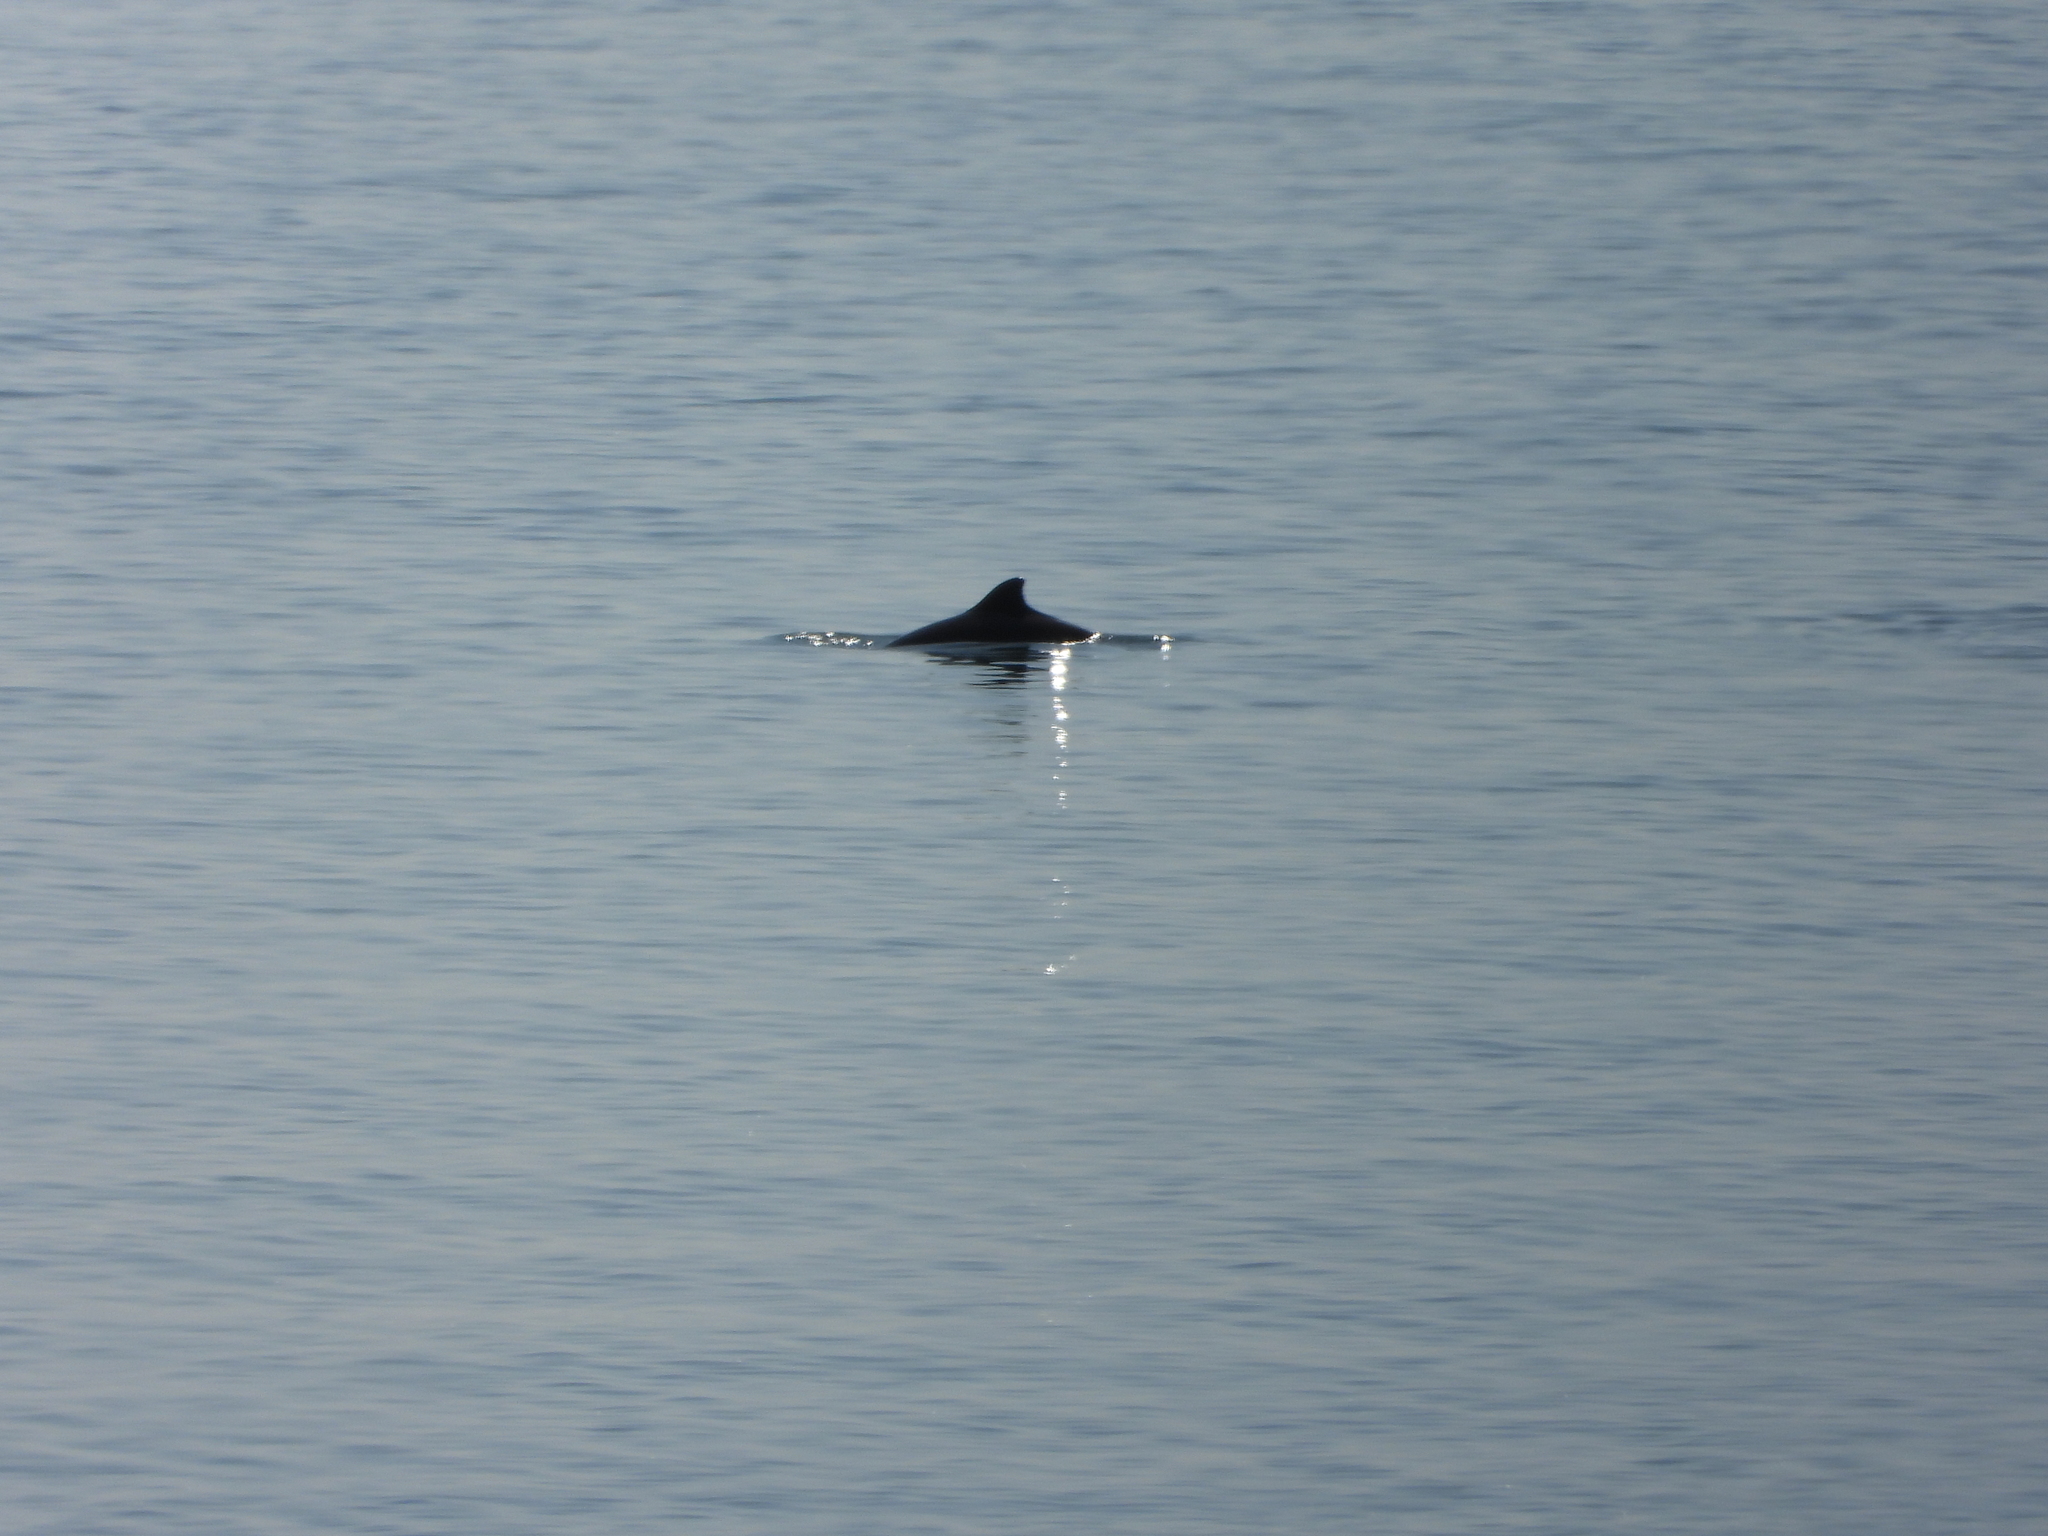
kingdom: Animalia
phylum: Chordata
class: Mammalia
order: Cetacea
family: Phocoenidae
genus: Phocoena
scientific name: Phocoena phocoena
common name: Harbor porpoise
